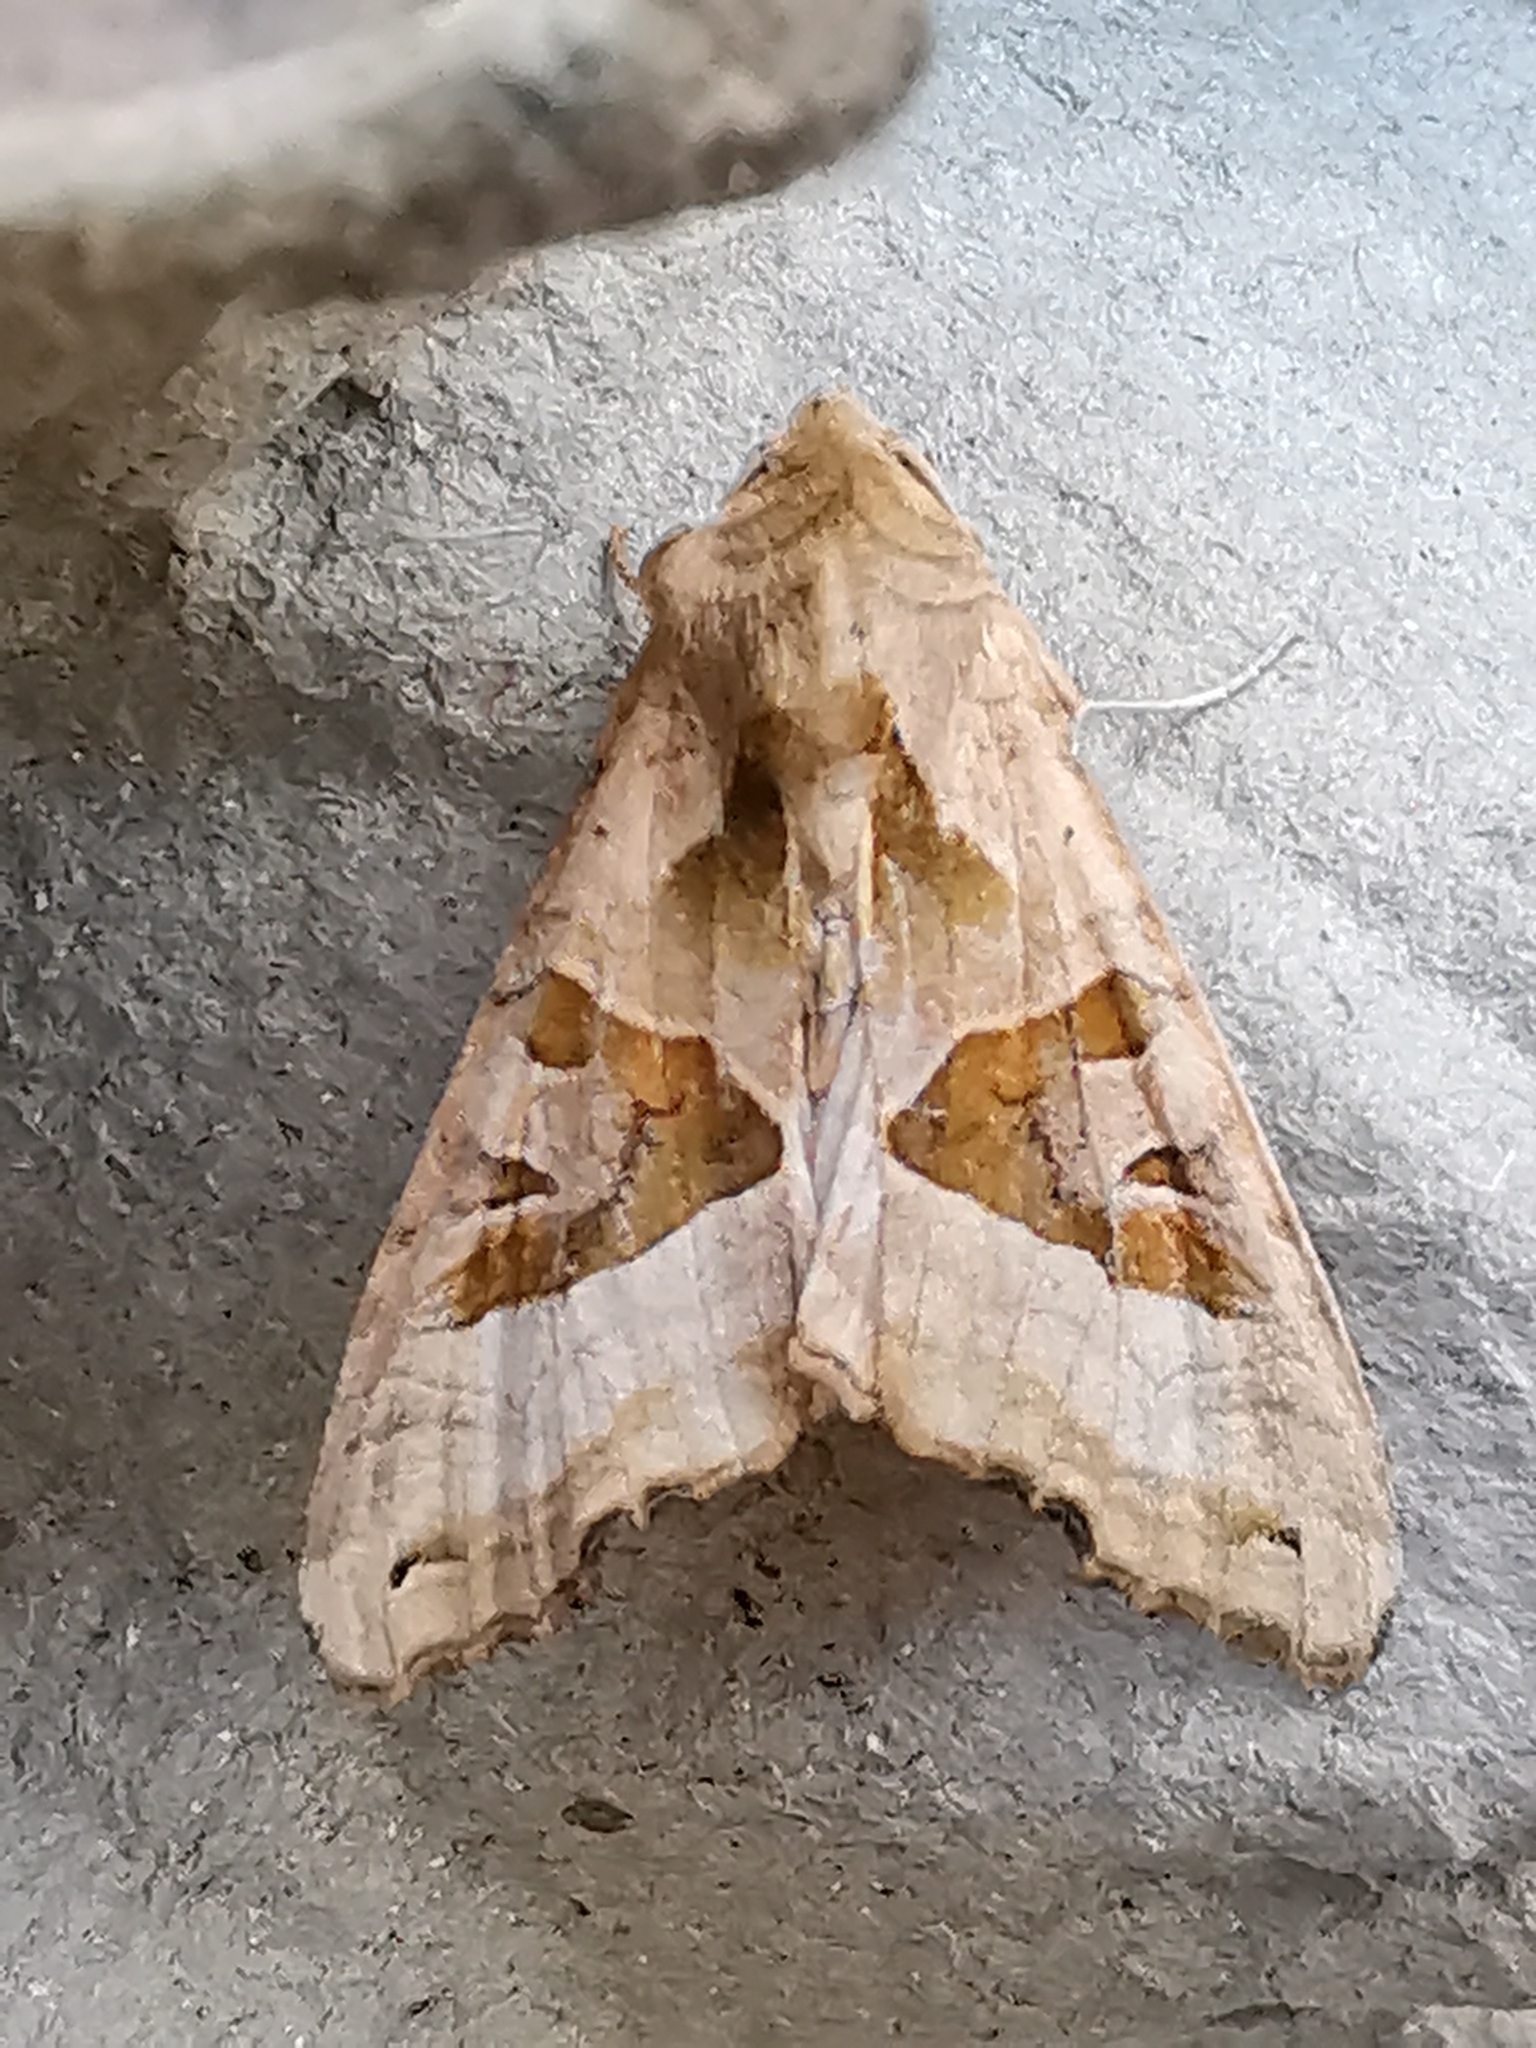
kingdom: Animalia
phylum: Arthropoda
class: Insecta
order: Lepidoptera
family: Noctuidae
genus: Phlogophora
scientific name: Phlogophora meticulosa
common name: Angle shades
